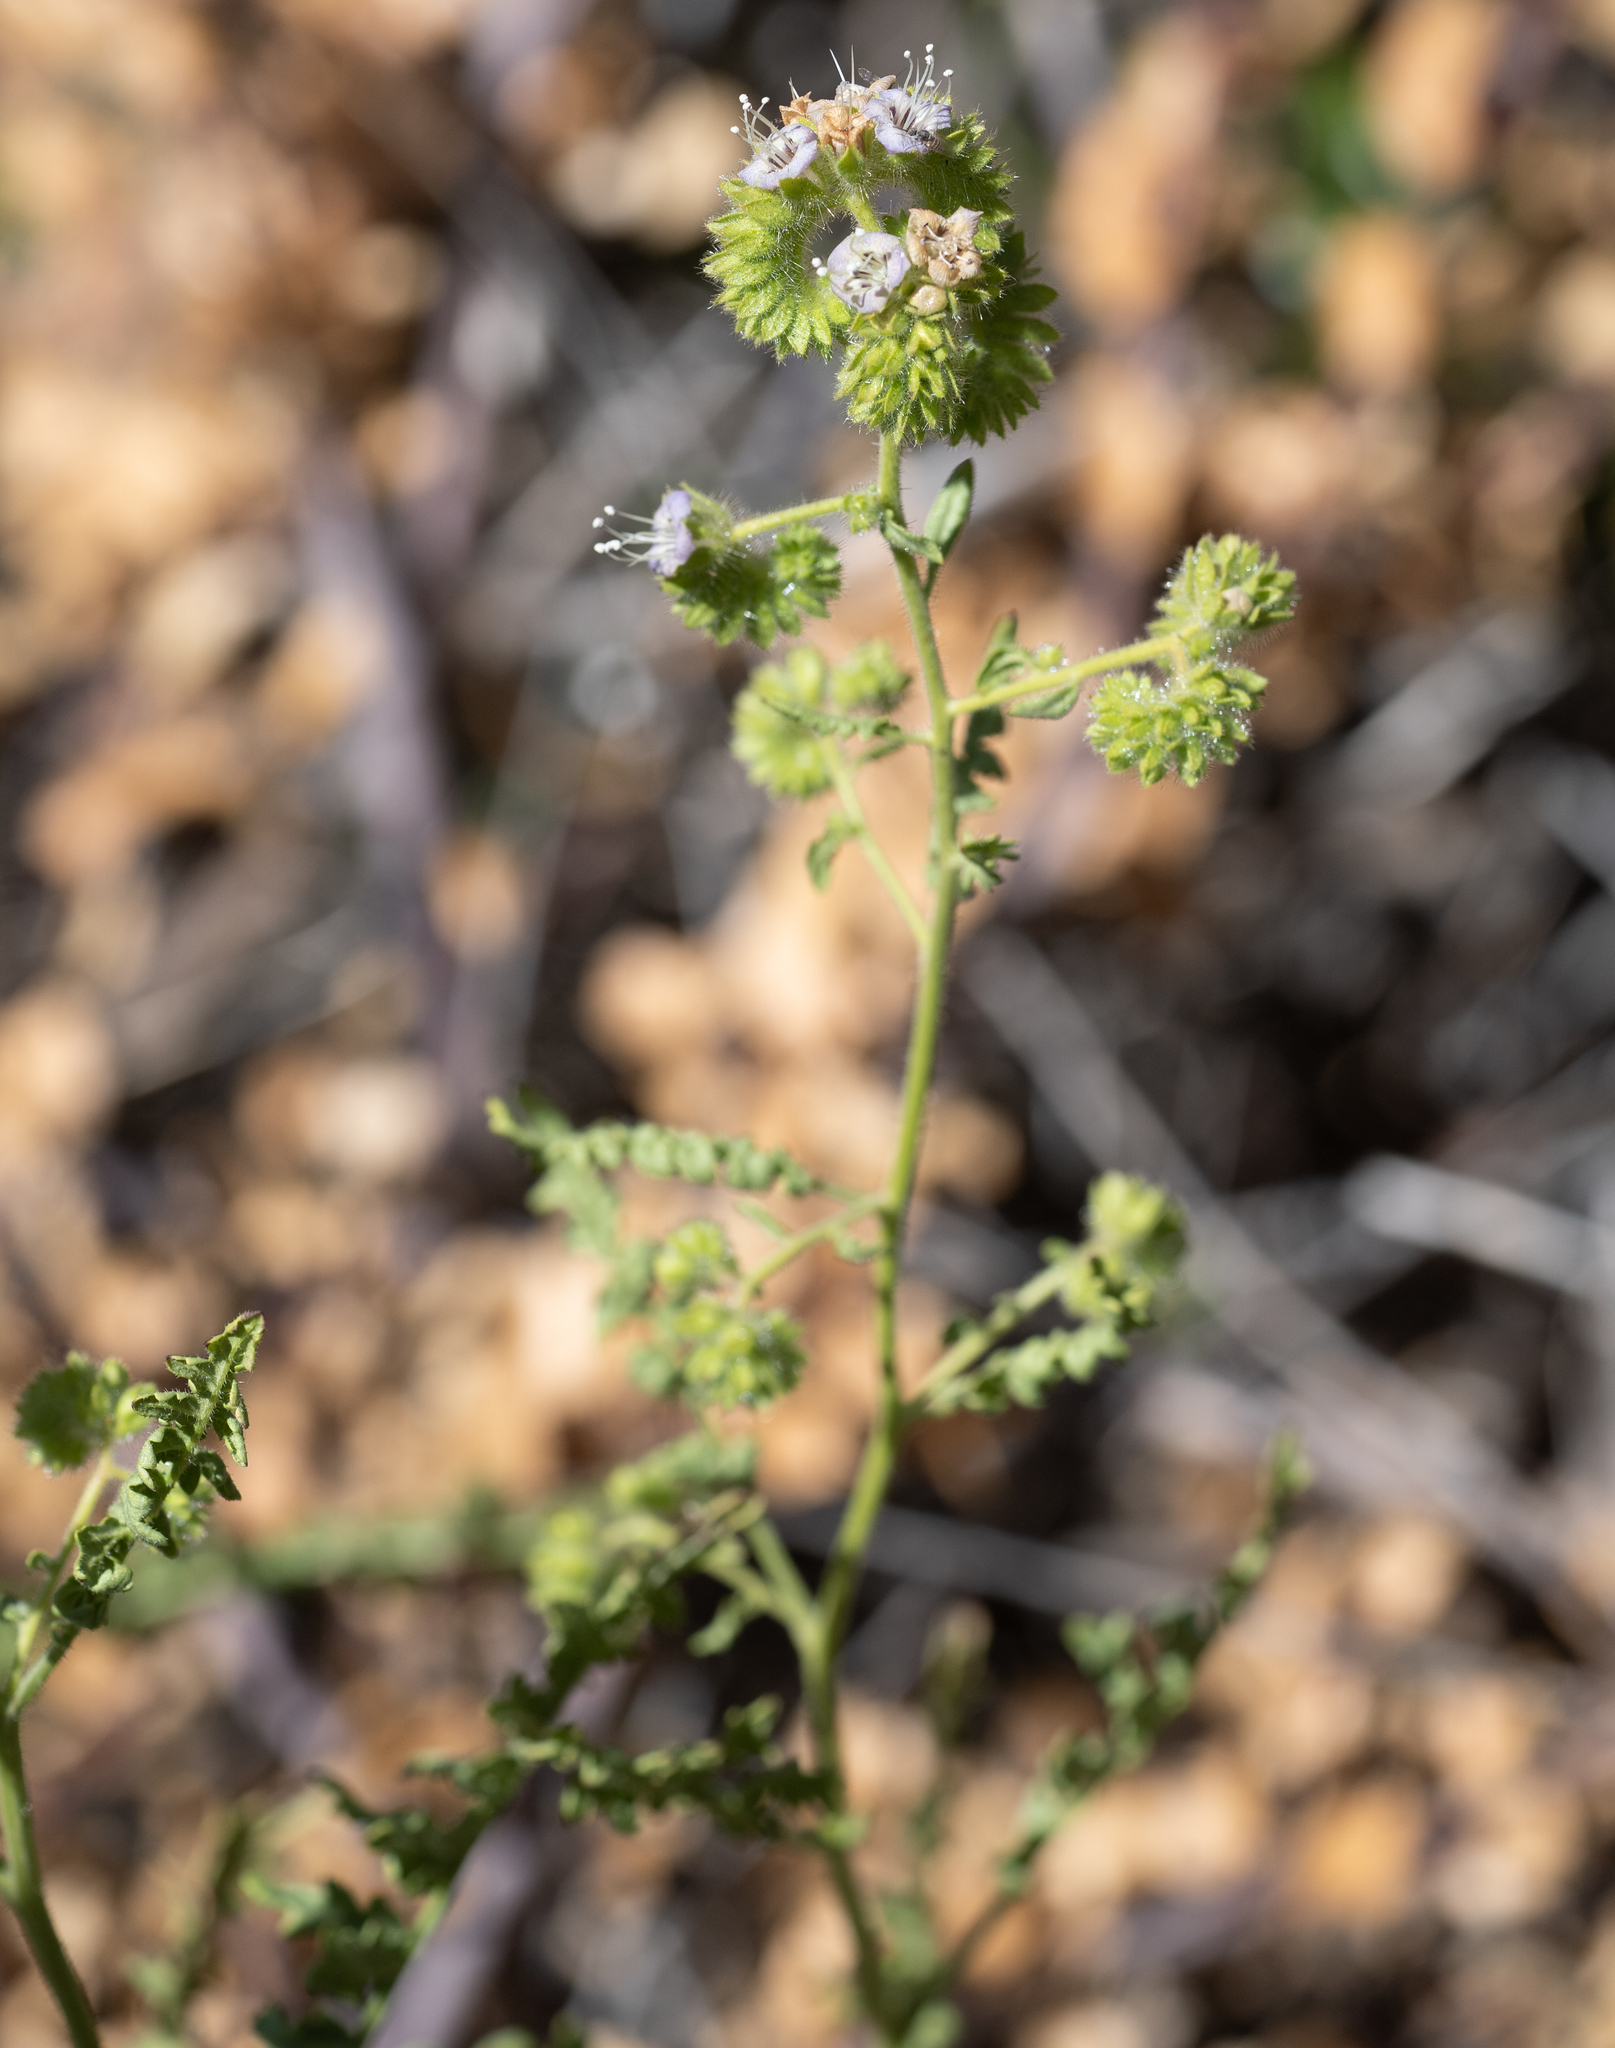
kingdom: Plantae
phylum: Tracheophyta
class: Magnoliopsida
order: Boraginales
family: Hydrophyllaceae
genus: Phacelia
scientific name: Phacelia ramosissima
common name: Branching phacelia
